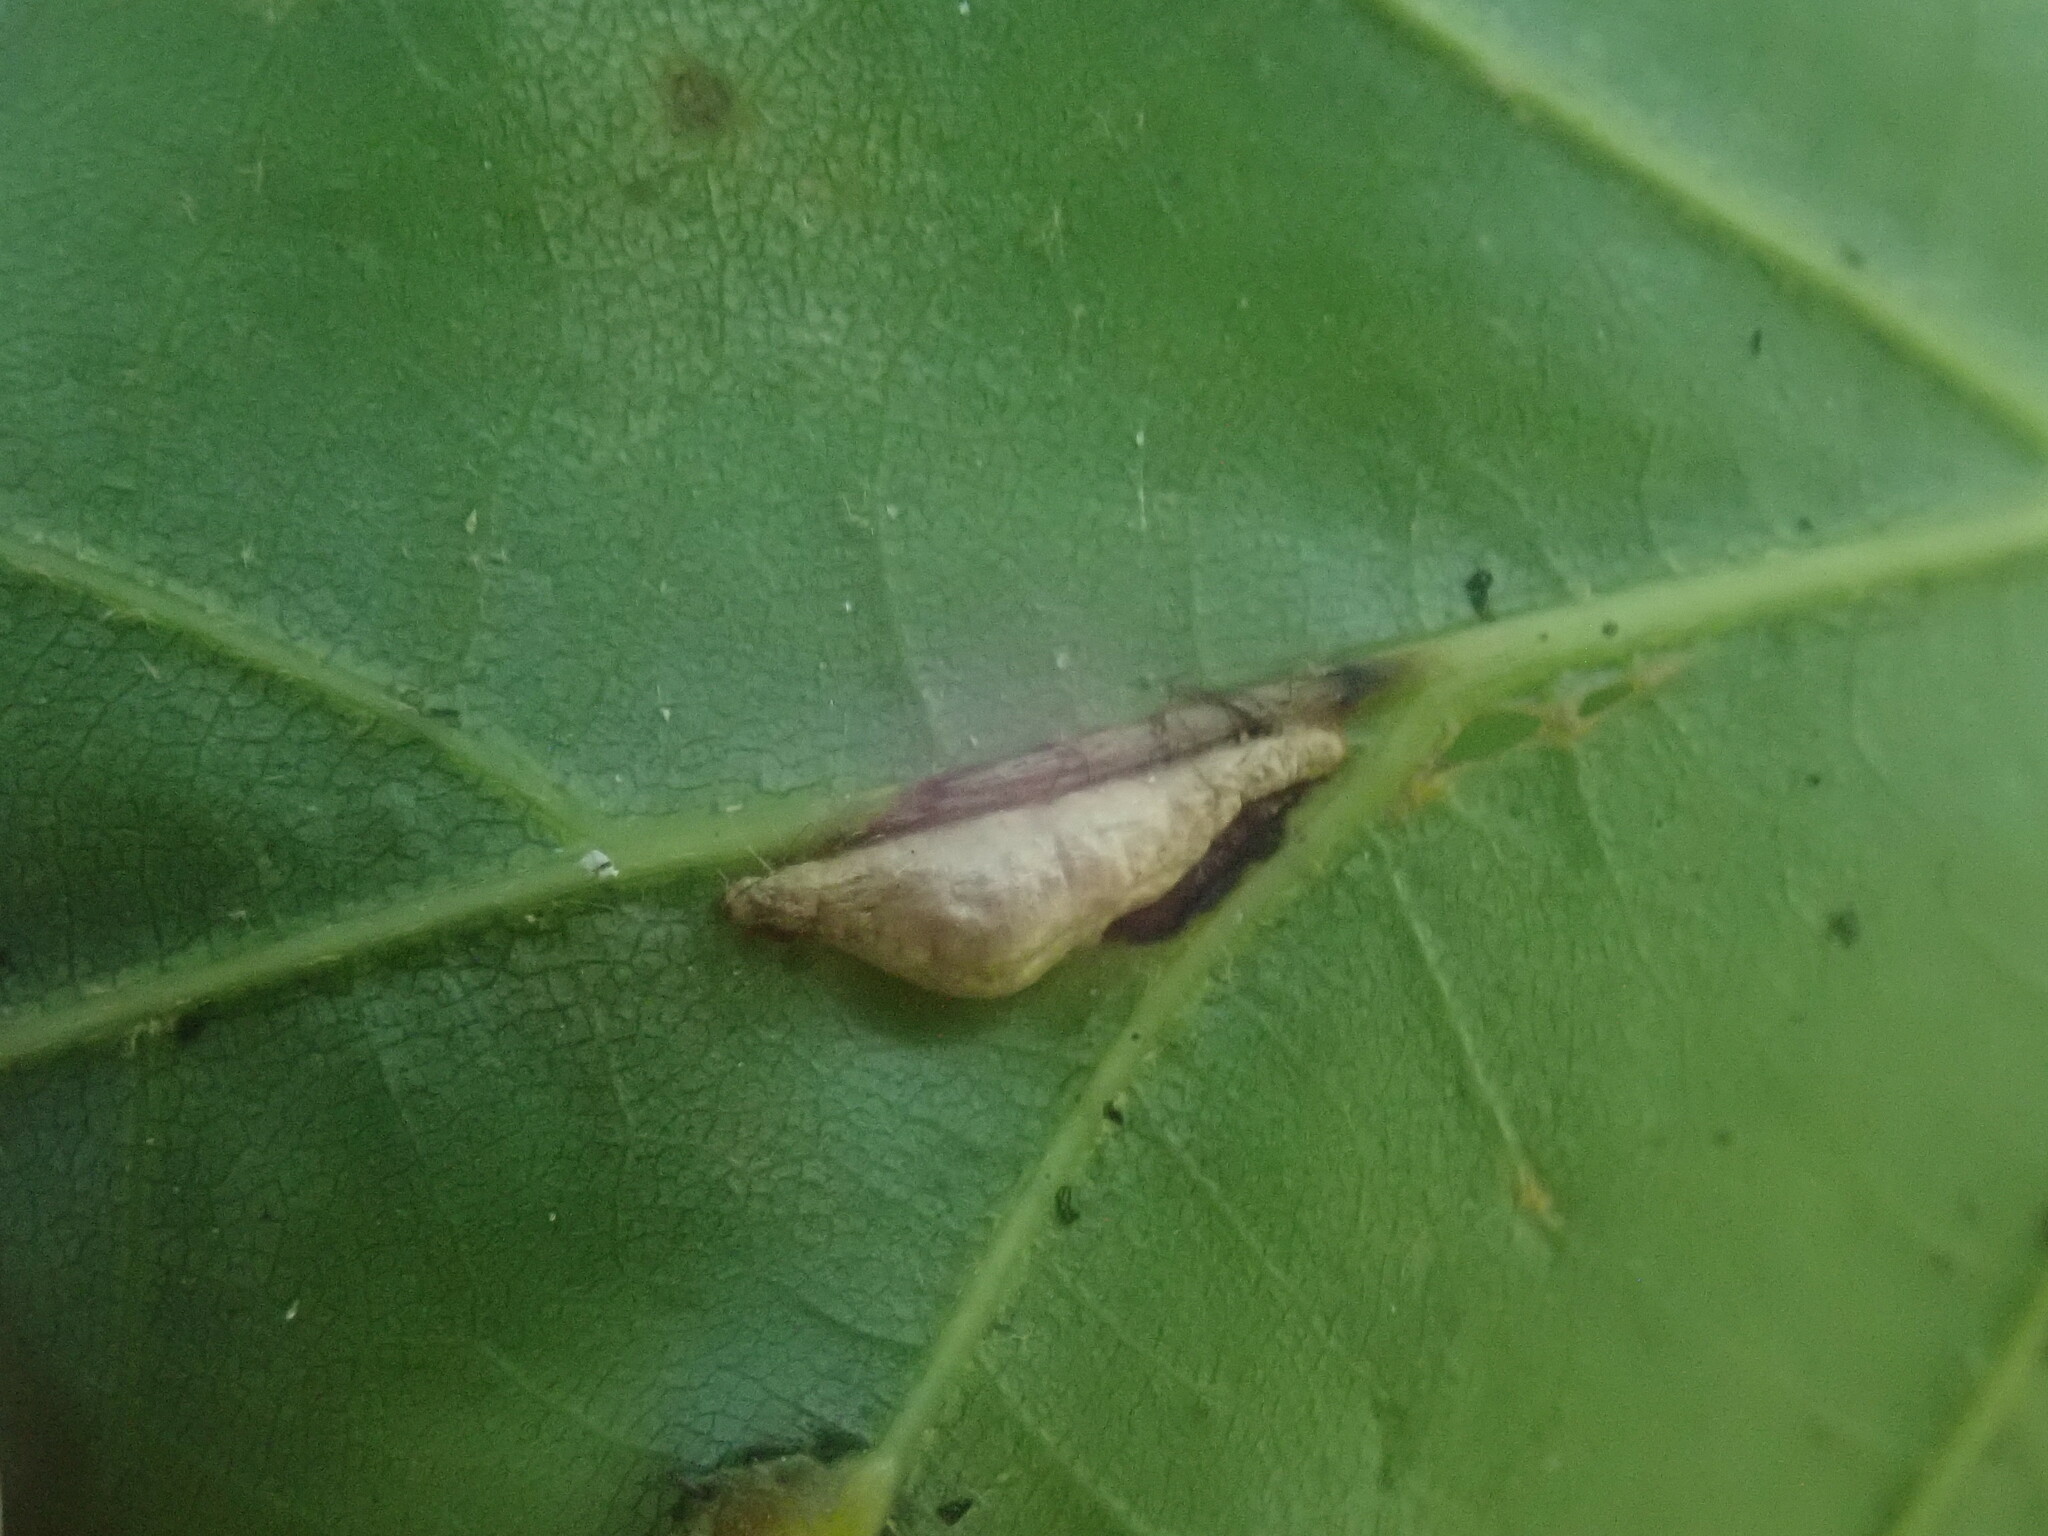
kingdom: Animalia
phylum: Arthropoda
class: Insecta
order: Diptera
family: Cecidomyiidae
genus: Macrodiplosis
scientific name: Macrodiplosis majalis
